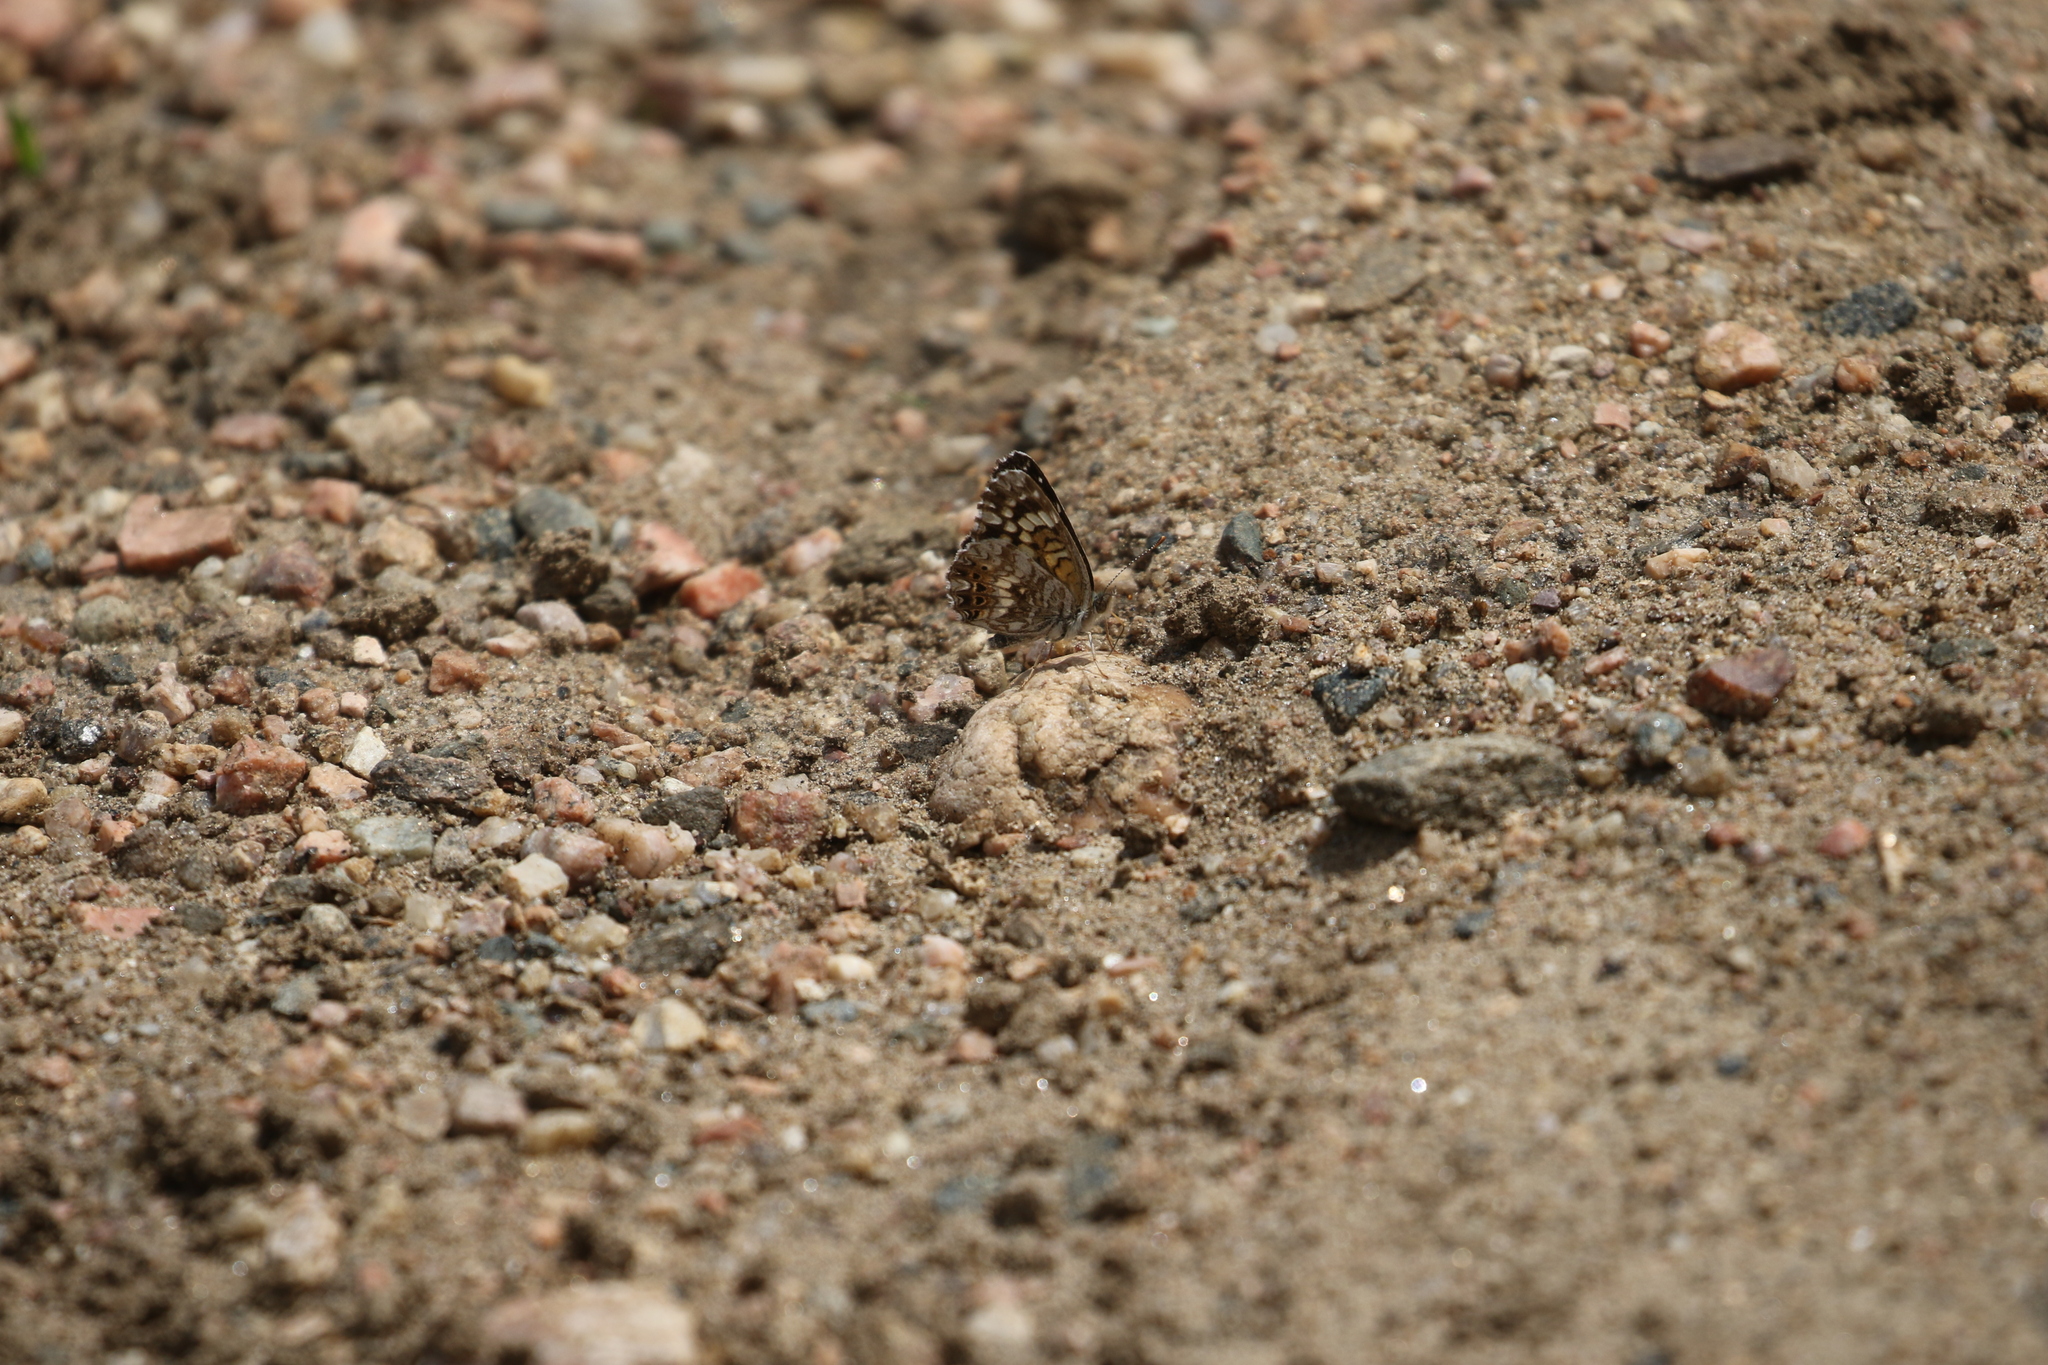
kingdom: Animalia
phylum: Arthropoda
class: Insecta
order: Lepidoptera
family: Nymphalidae
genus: Chlosyne
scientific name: Chlosyne gorgone
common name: Gorgone checkerspot
